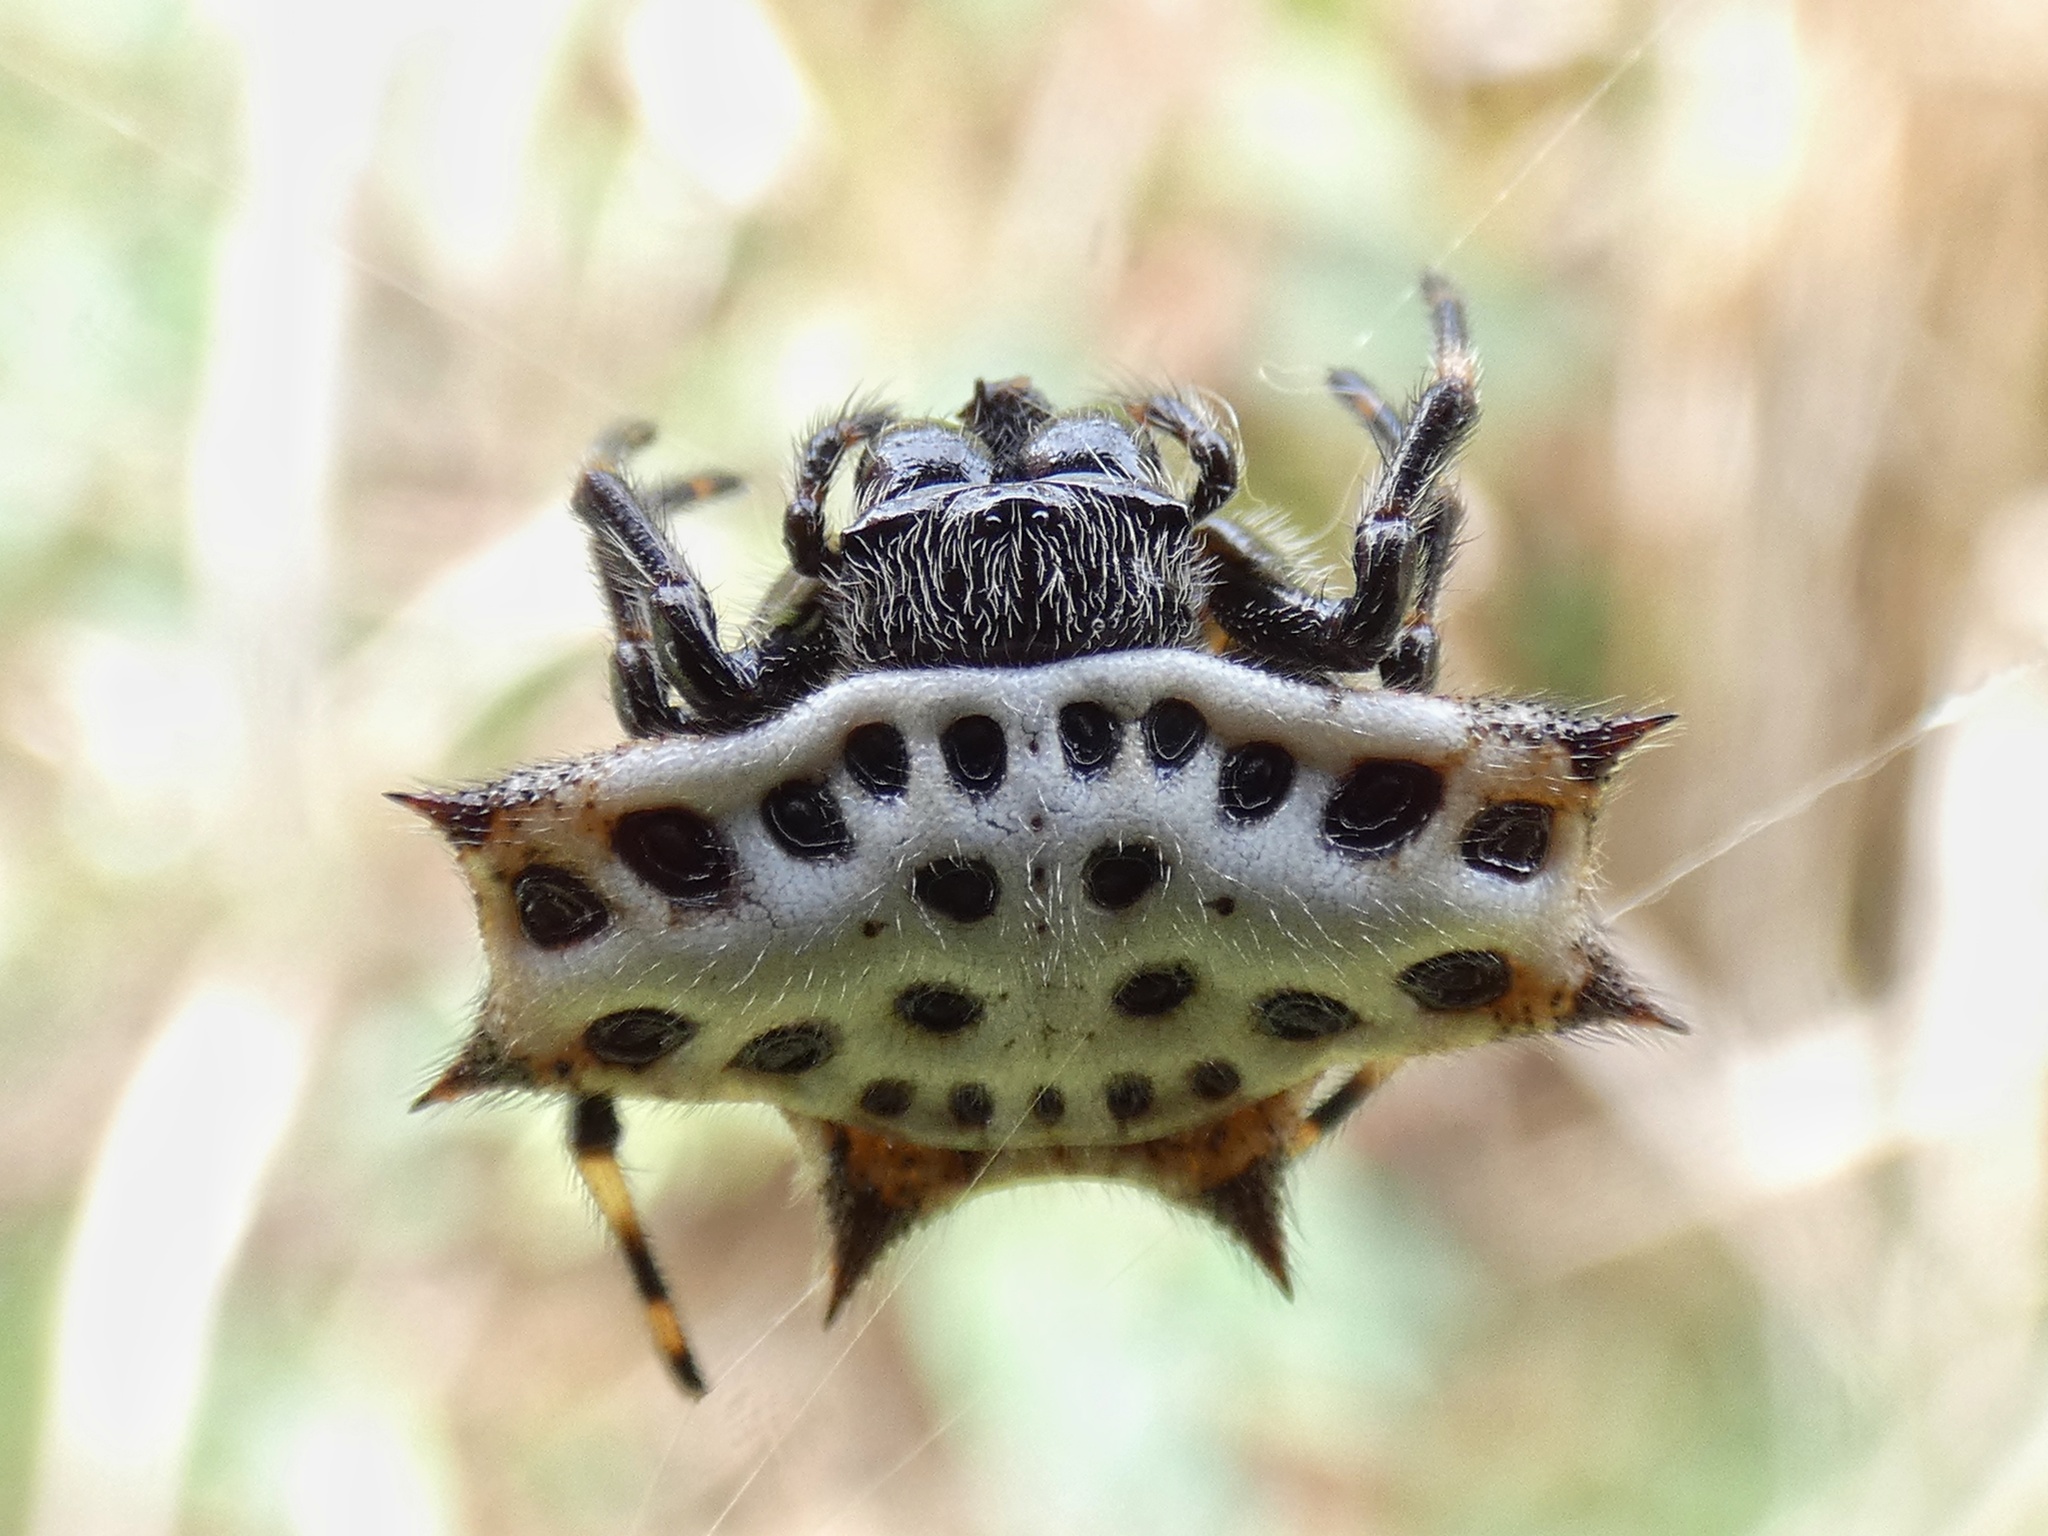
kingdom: Animalia
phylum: Arthropoda
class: Arachnida
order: Araneae
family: Araneidae
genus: Gasteracantha
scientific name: Gasteracantha cancriformis
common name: Orb weavers
